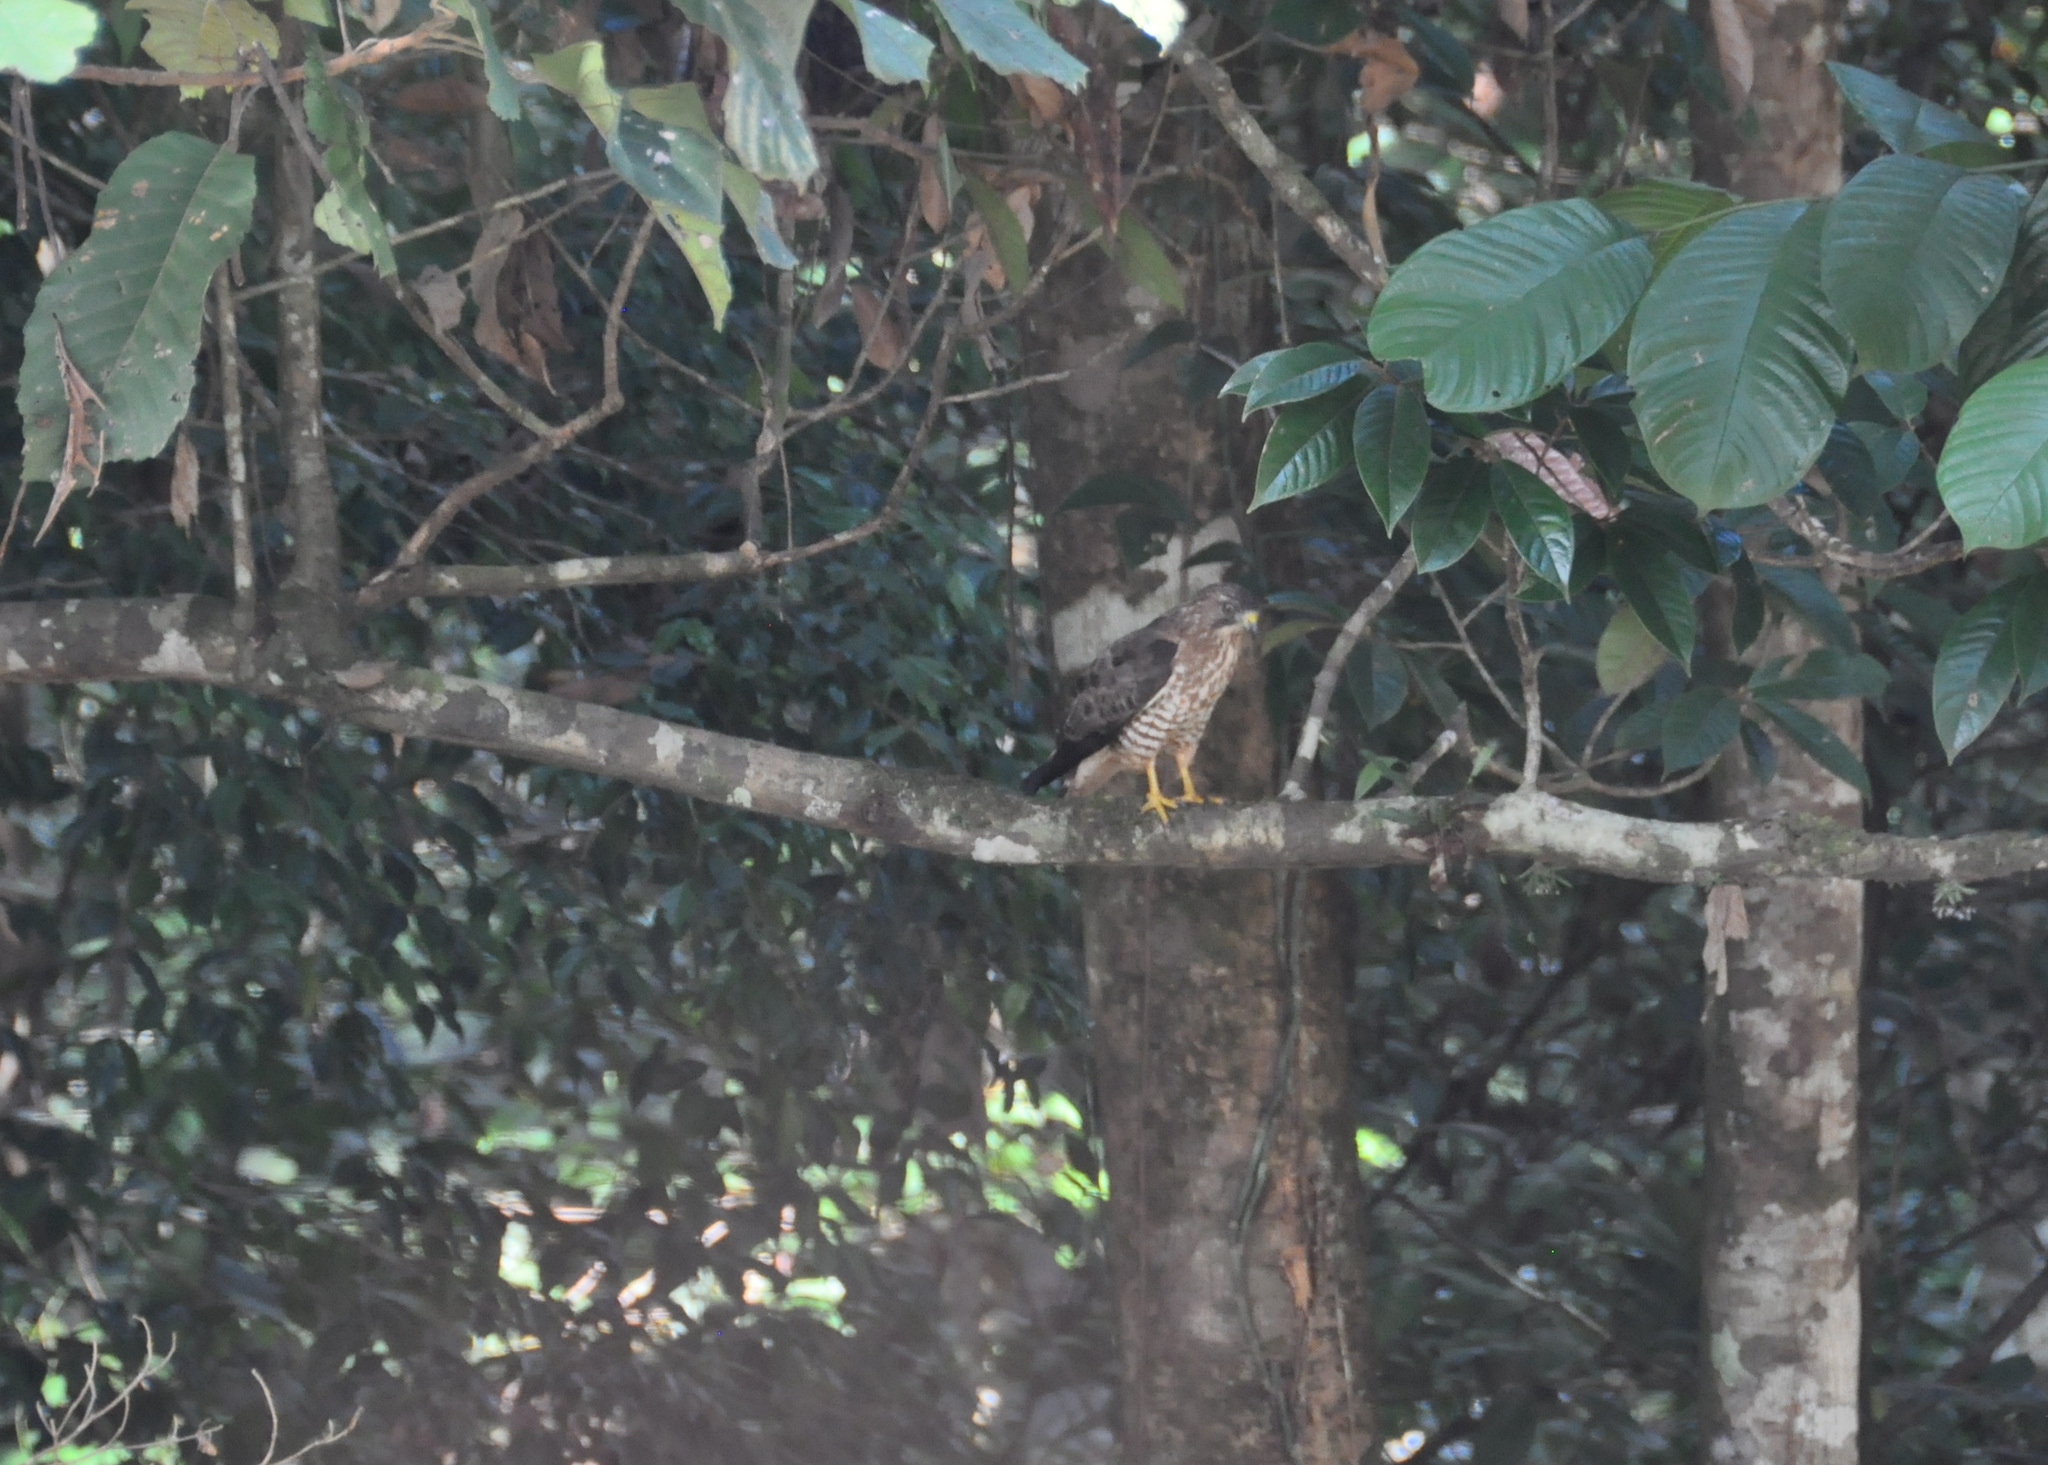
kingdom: Animalia
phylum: Chordata
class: Aves
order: Accipitriformes
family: Accipitridae
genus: Buteo
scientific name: Buteo platypterus
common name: Broad-winged hawk
